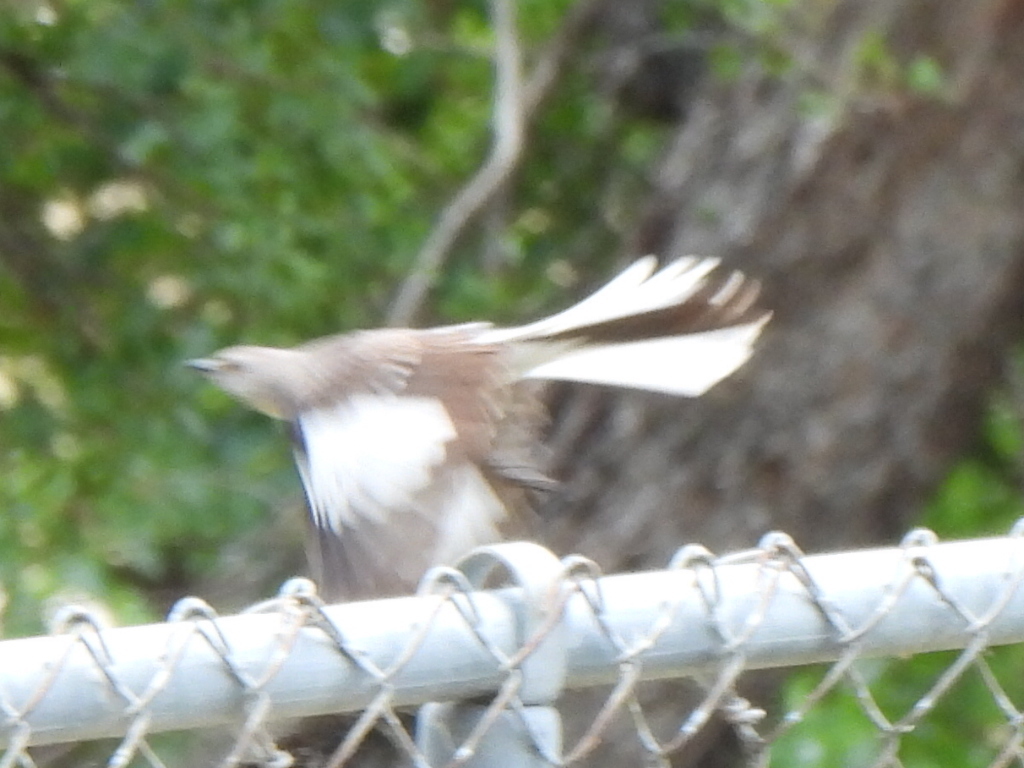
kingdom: Animalia
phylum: Chordata
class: Aves
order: Passeriformes
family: Mimidae
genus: Mimus
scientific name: Mimus polyglottos
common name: Northern mockingbird
